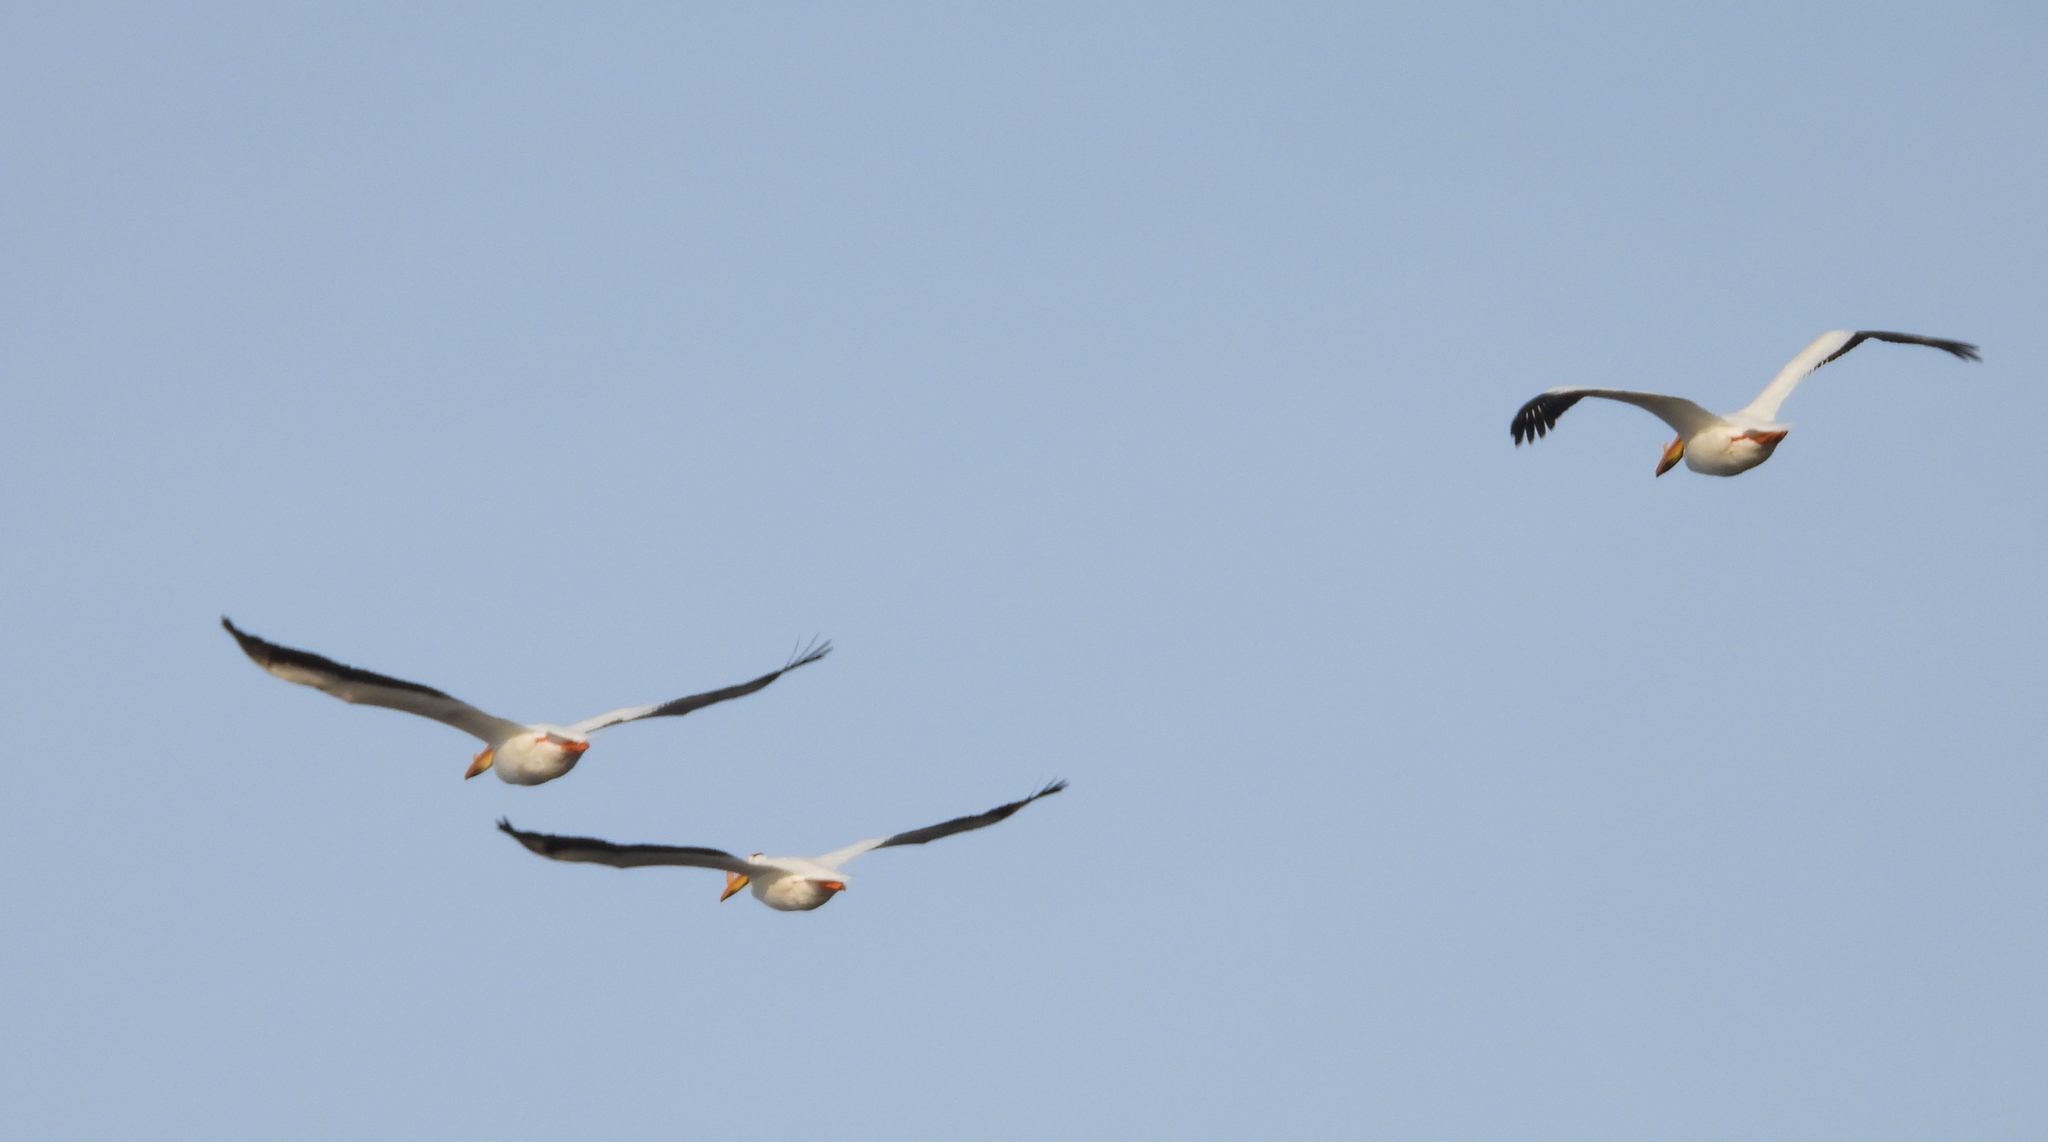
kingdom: Animalia
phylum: Chordata
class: Aves
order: Pelecaniformes
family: Pelecanidae
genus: Pelecanus
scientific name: Pelecanus erythrorhynchos
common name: American white pelican
